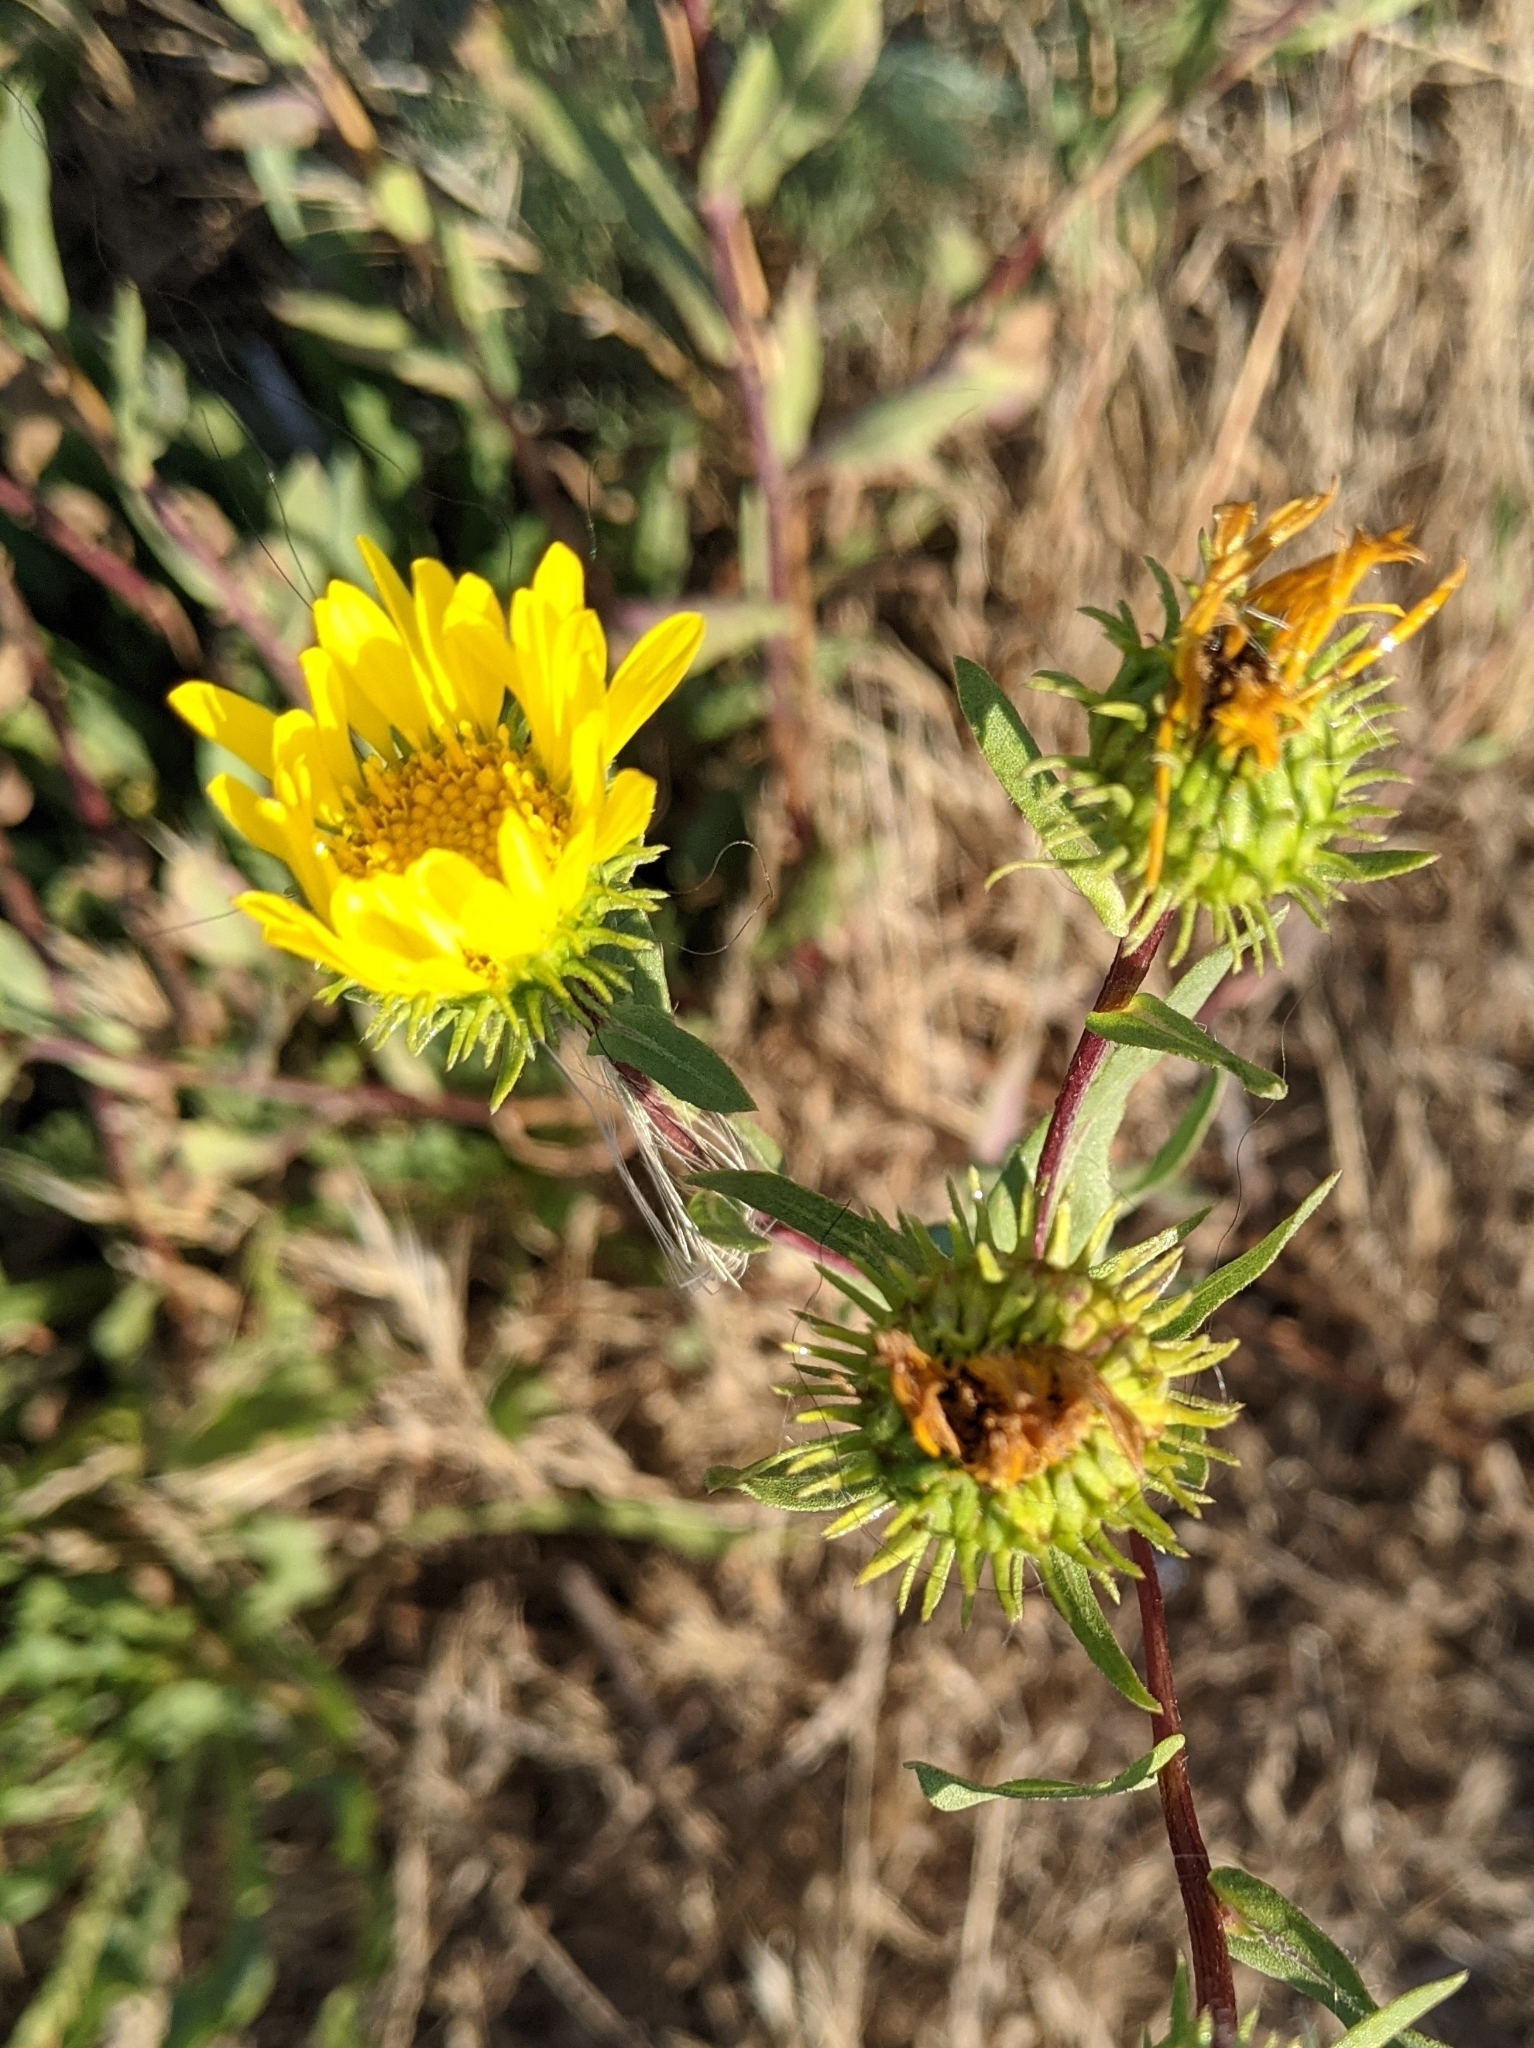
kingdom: Plantae
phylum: Tracheophyta
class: Magnoliopsida
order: Asterales
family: Asteraceae
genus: Grindelia
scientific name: Grindelia integrifolia
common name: Puget sound gumweed
